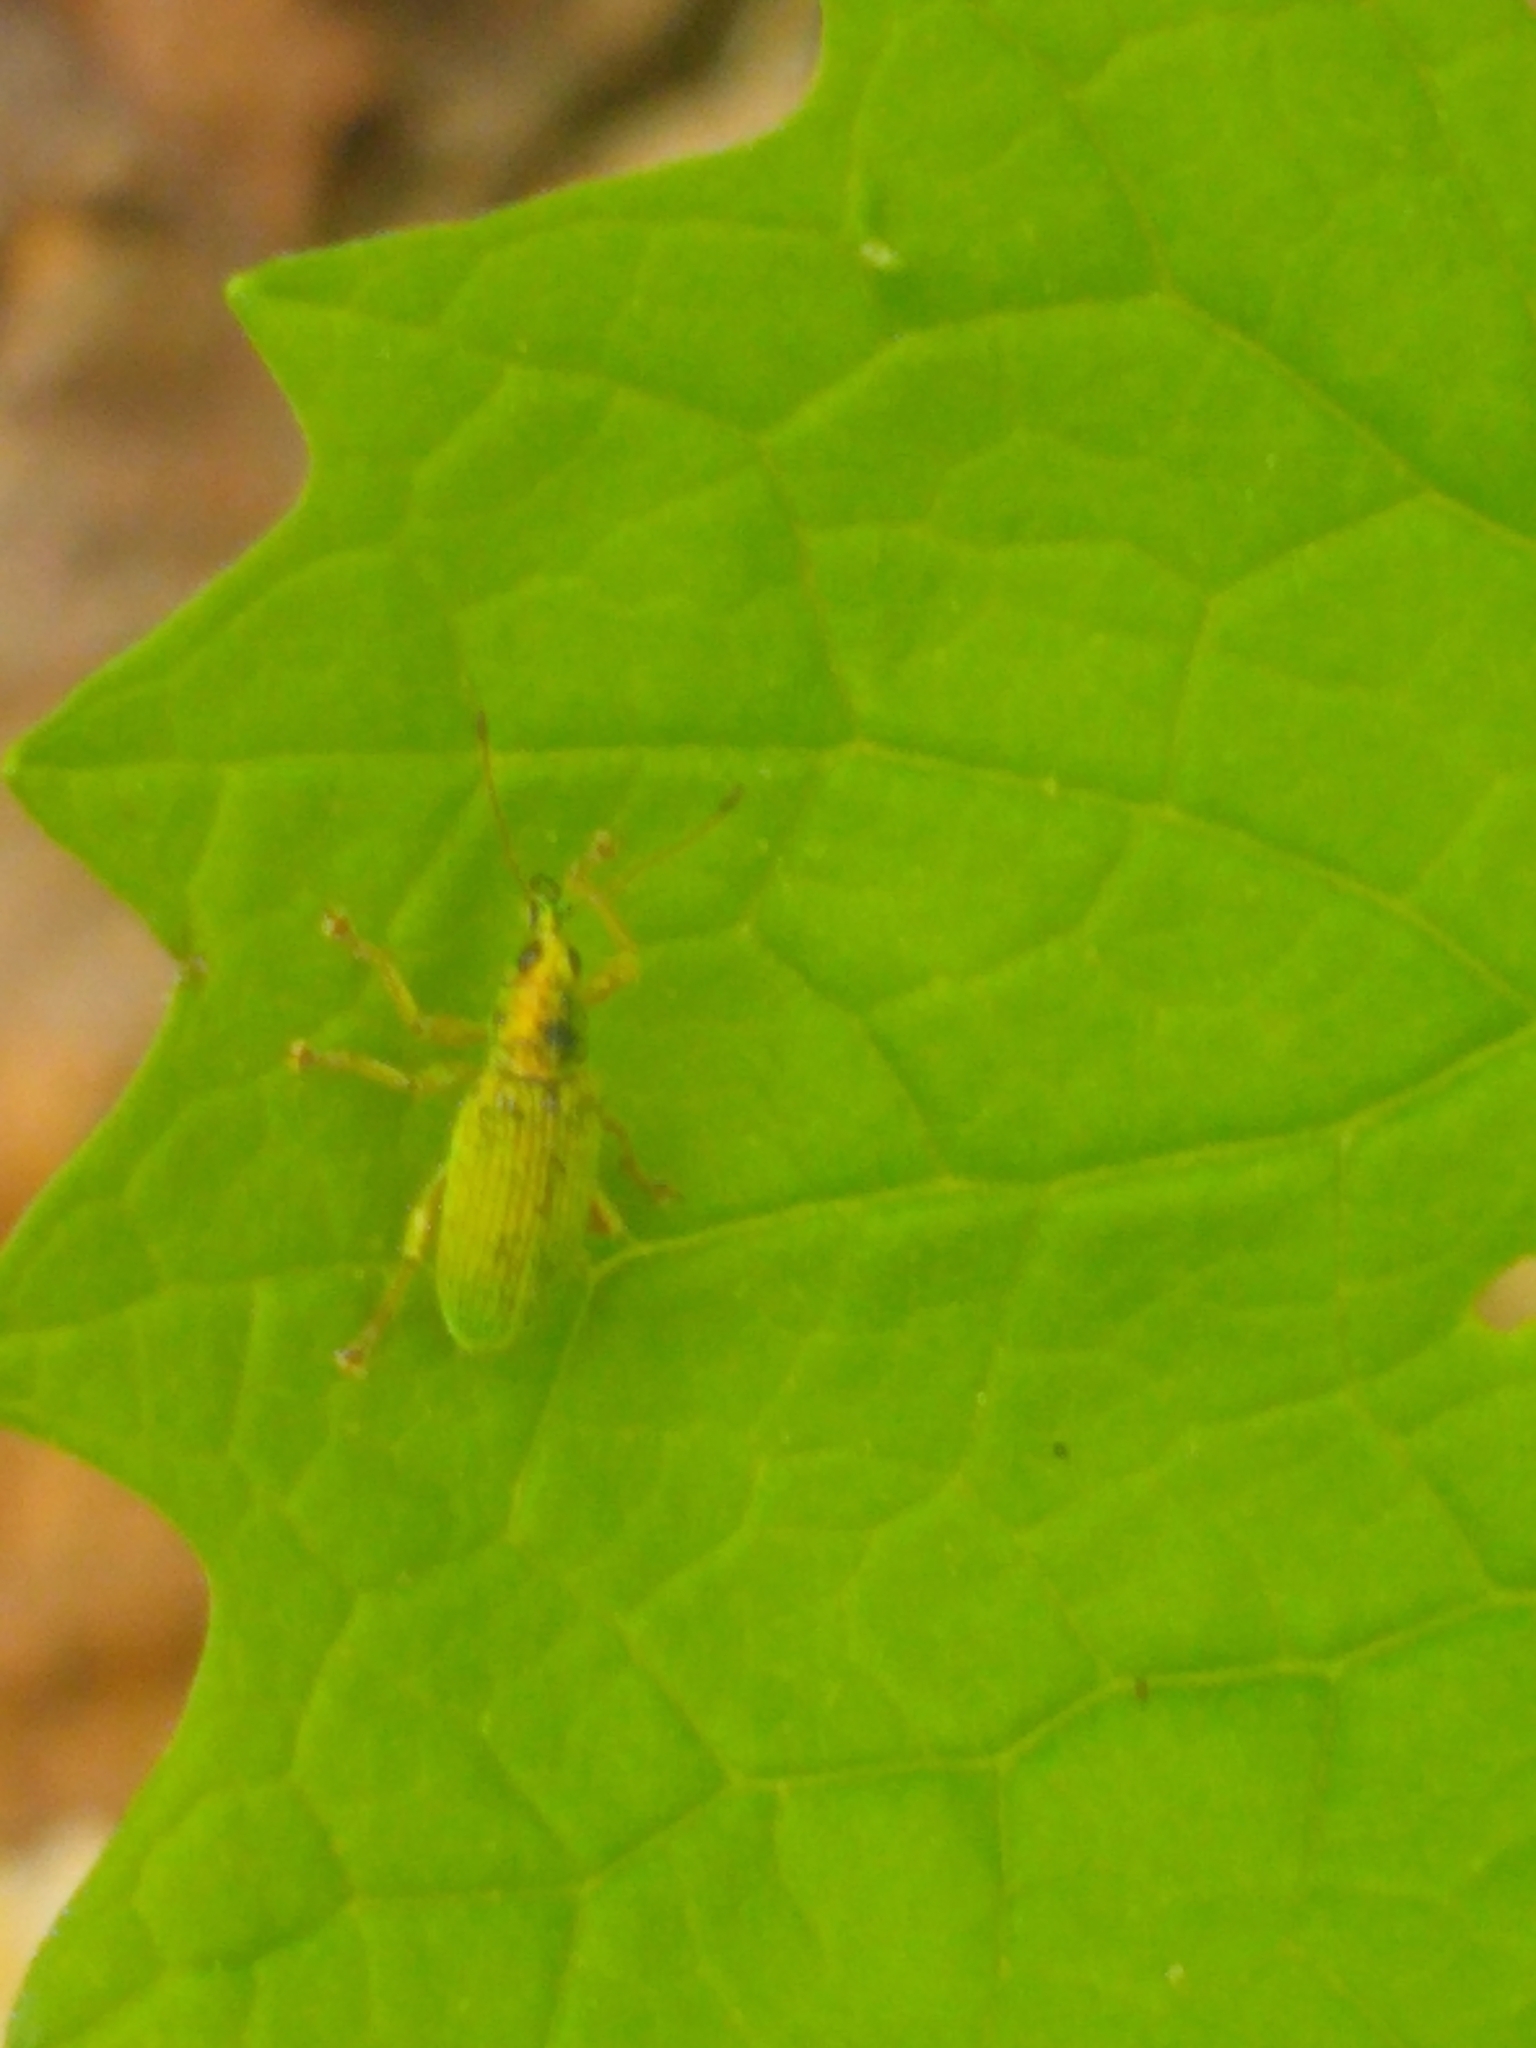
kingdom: Animalia
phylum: Arthropoda
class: Insecta
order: Coleoptera
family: Curculionidae
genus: Polydrusus
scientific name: Polydrusus formosus
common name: Weevil
